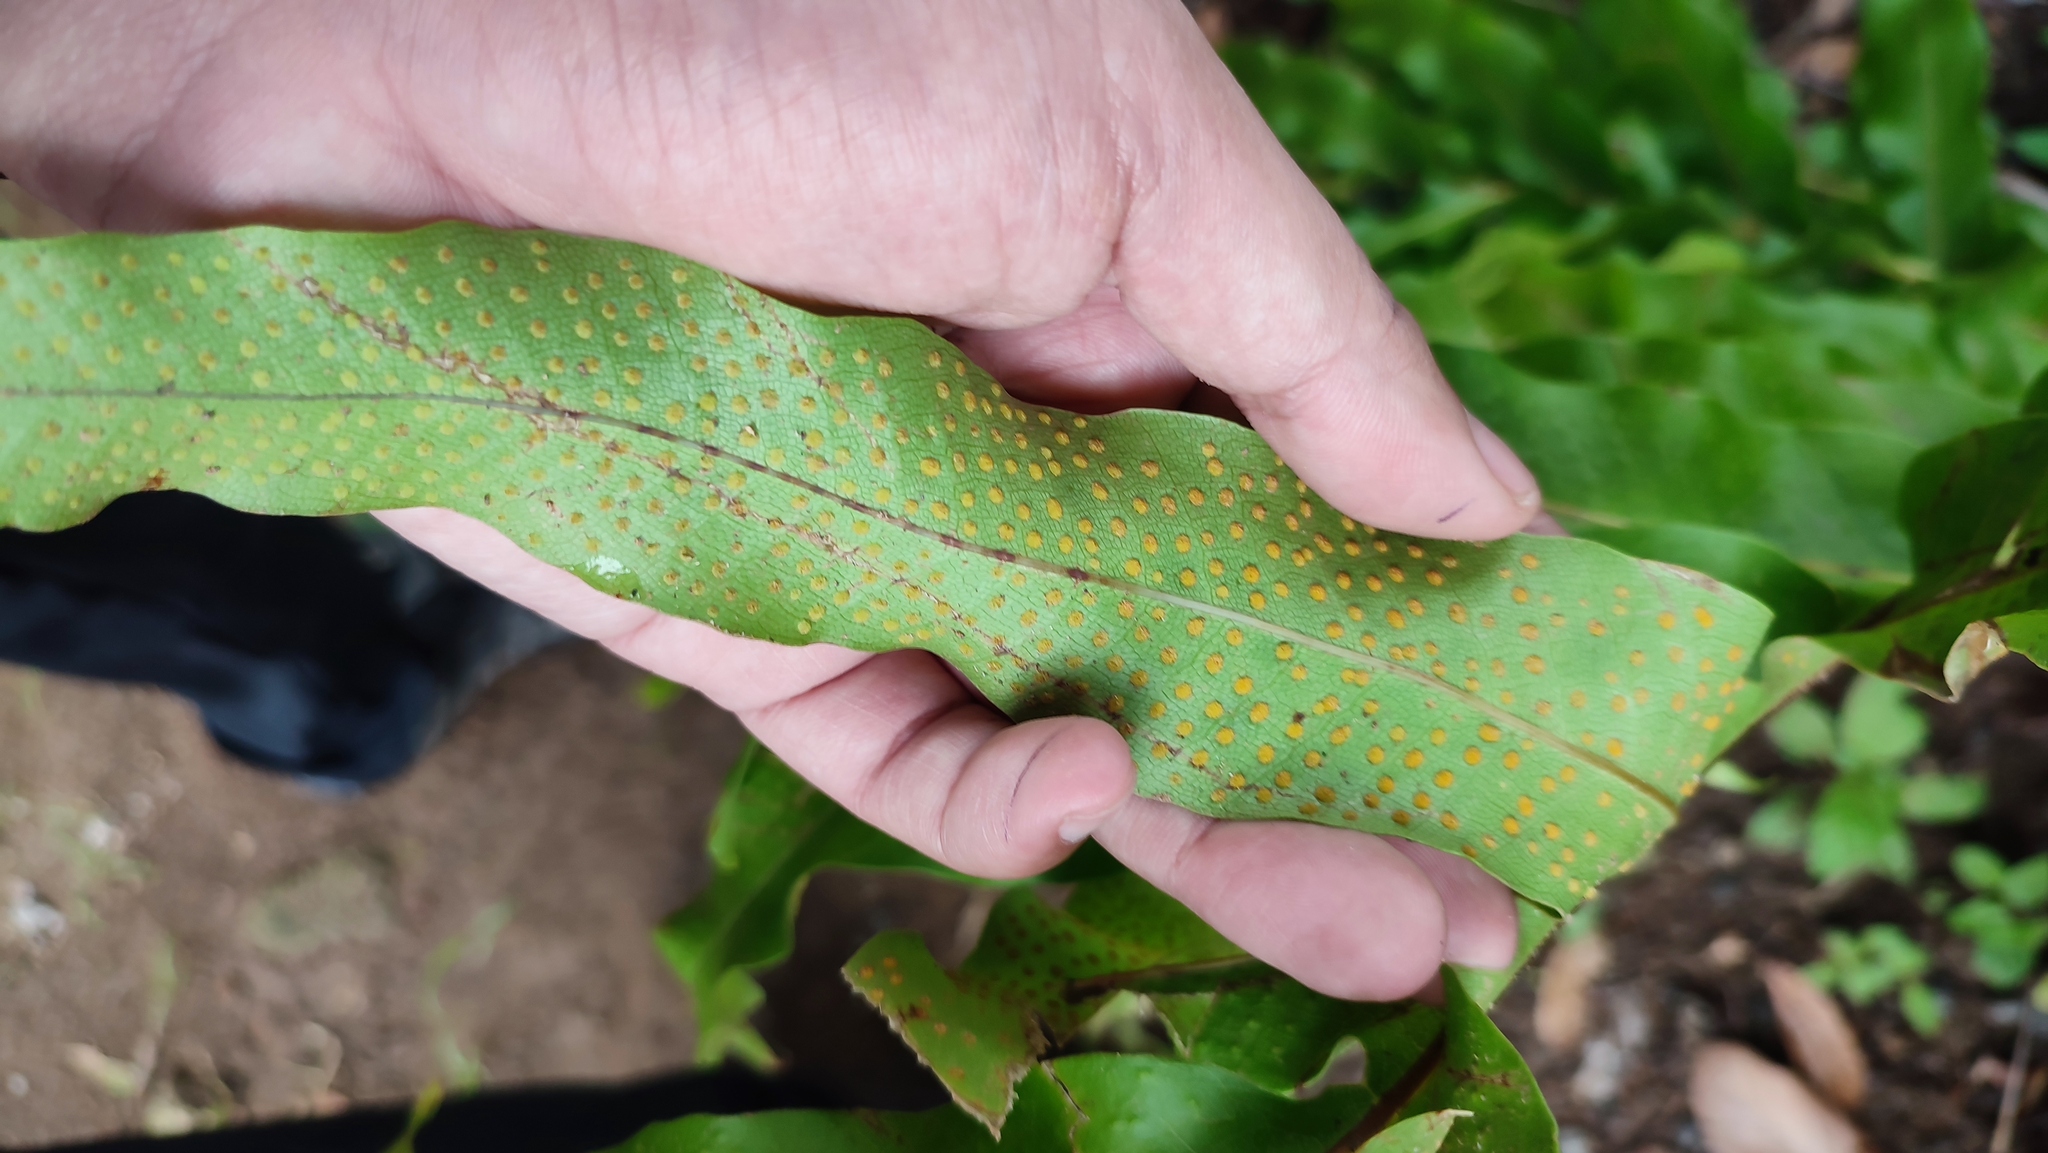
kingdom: Plantae
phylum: Tracheophyta
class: Polypodiopsida
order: Polypodiales
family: Polypodiaceae
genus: Drynaria
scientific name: Drynaria quercifolia
